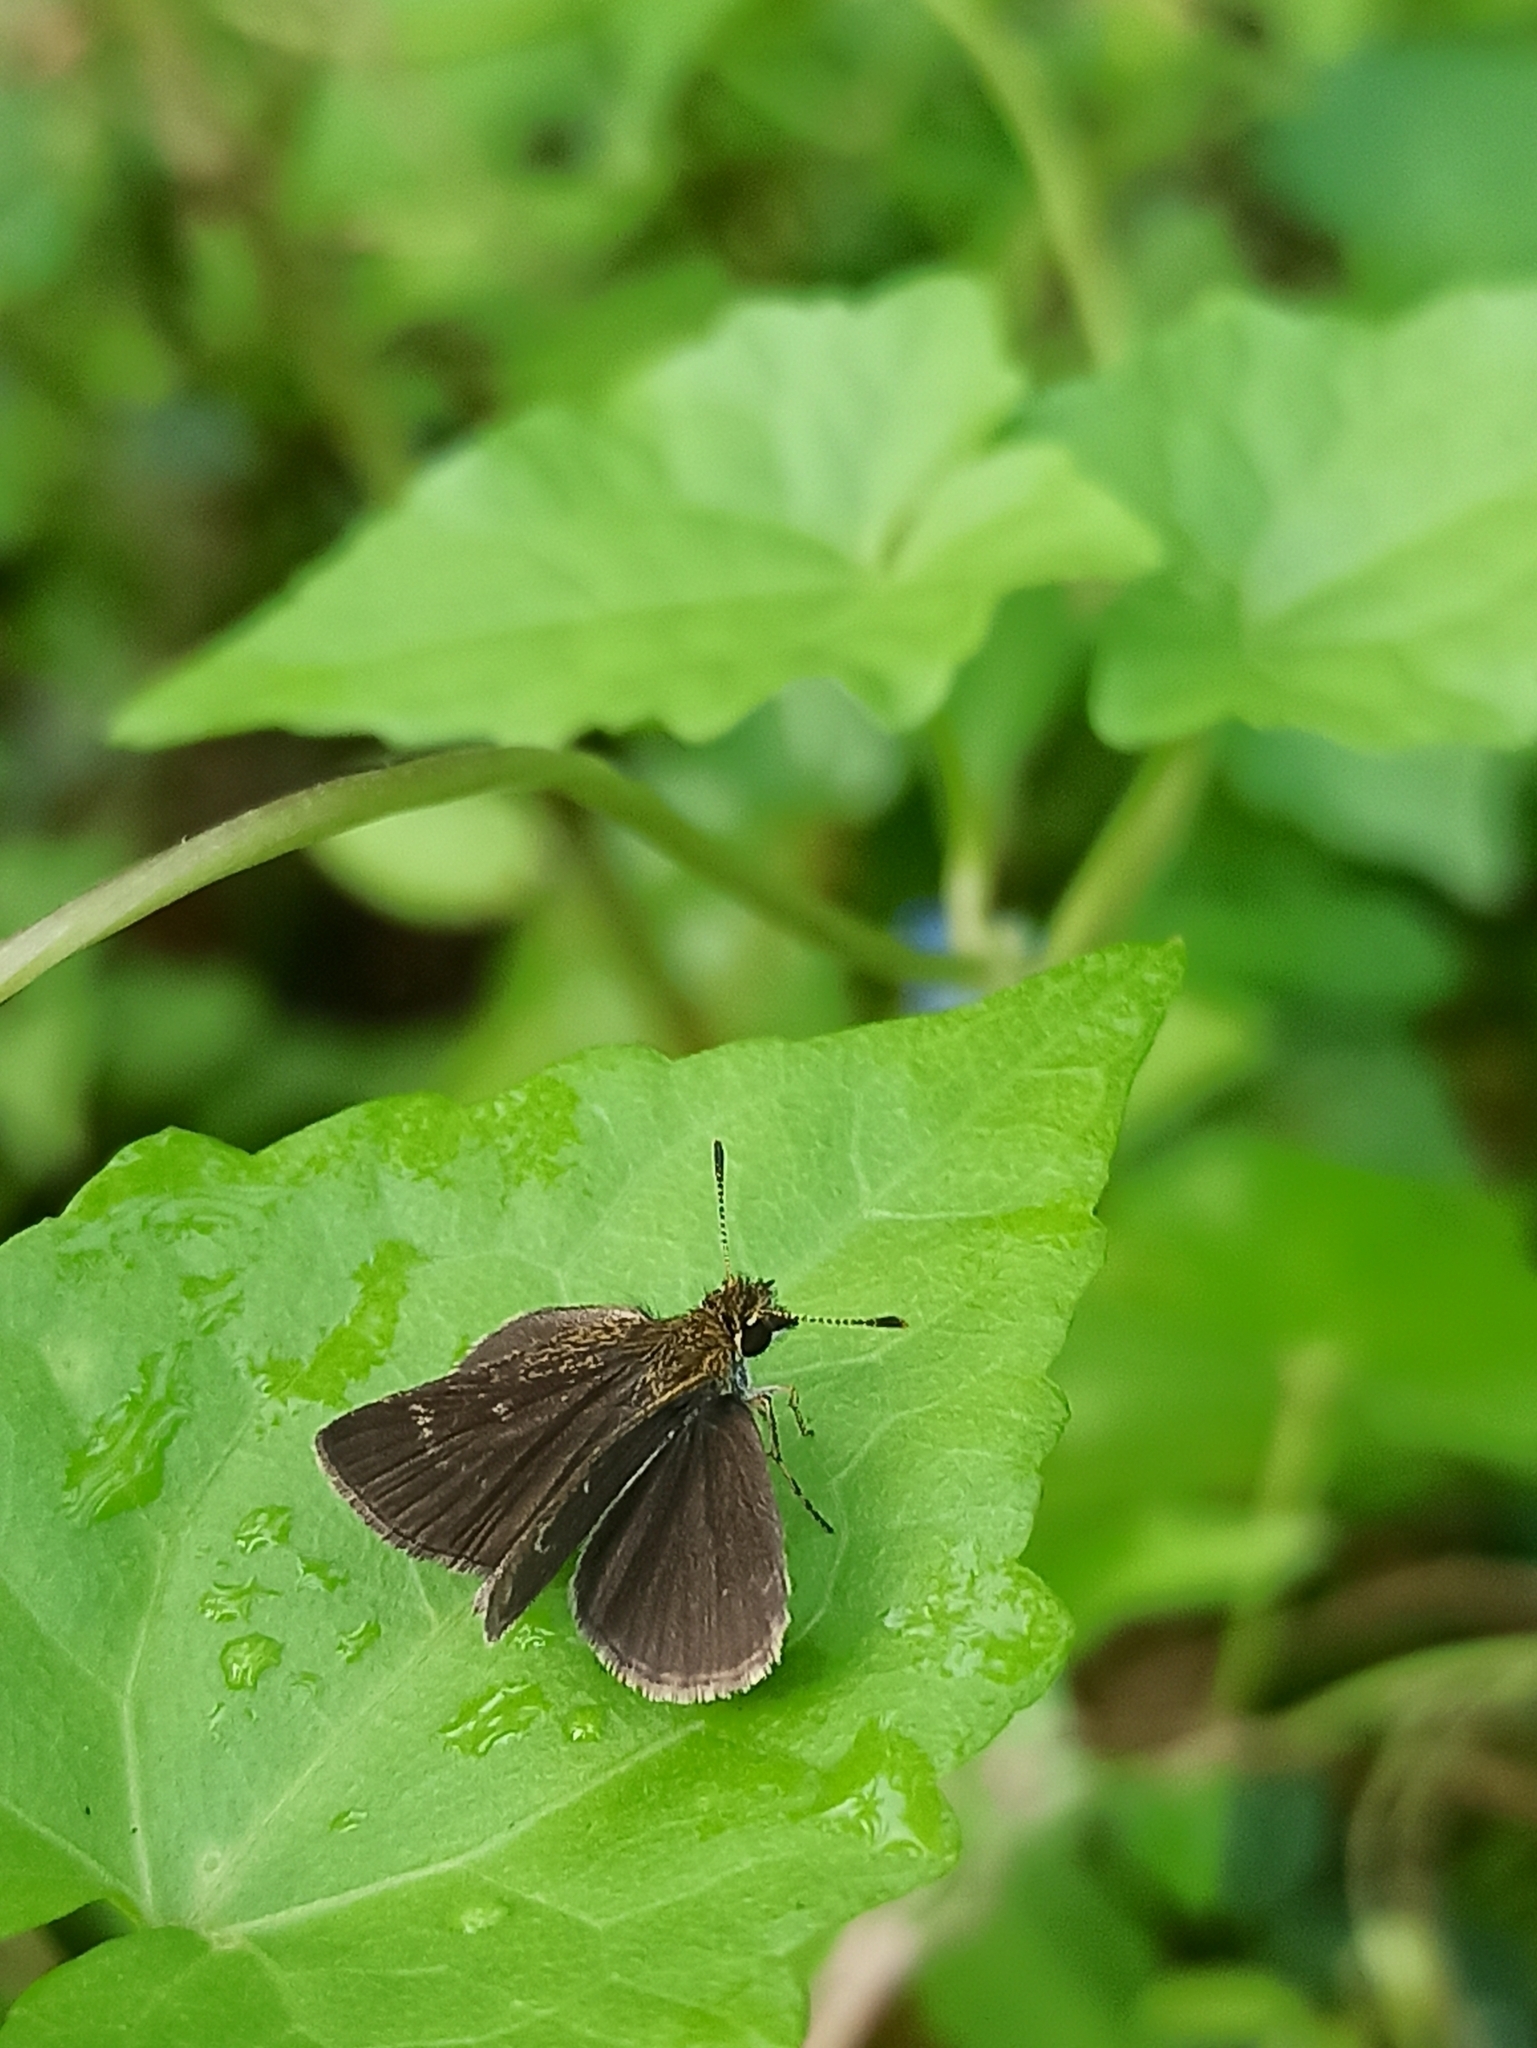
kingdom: Animalia
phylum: Arthropoda
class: Insecta
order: Lepidoptera
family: Hesperiidae
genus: Aeromachus
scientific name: Aeromachus pygmaeus
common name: Pygmy scrub hopper
